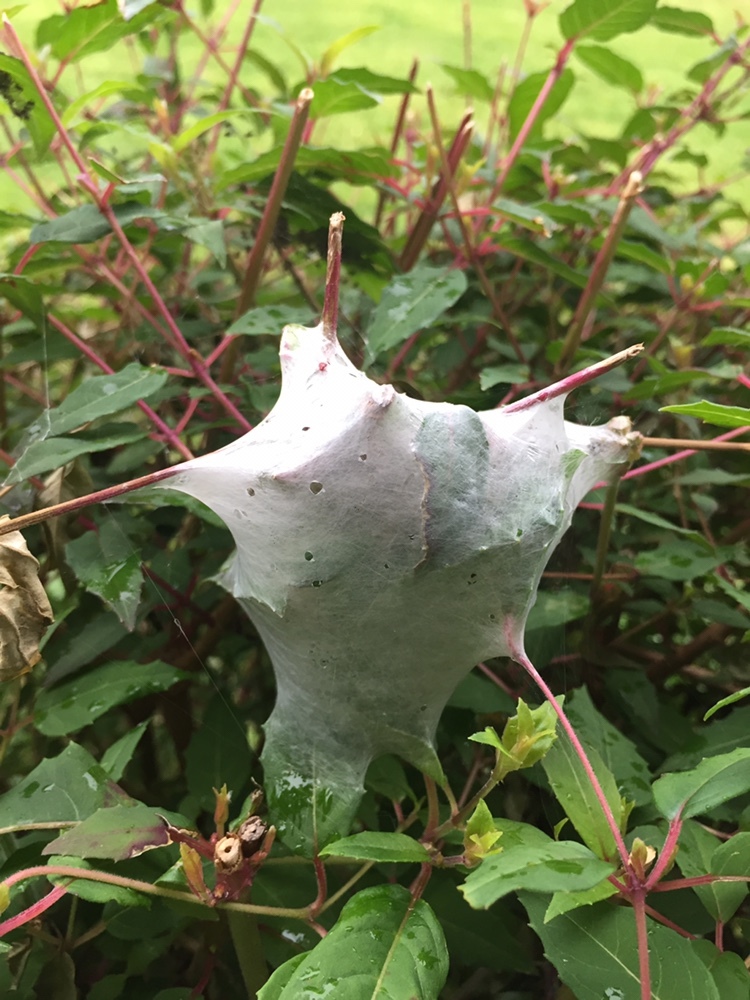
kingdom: Animalia
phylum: Arthropoda
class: Arachnida
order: Araneae
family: Pisauridae
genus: Dolomedes
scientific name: Dolomedes minor
